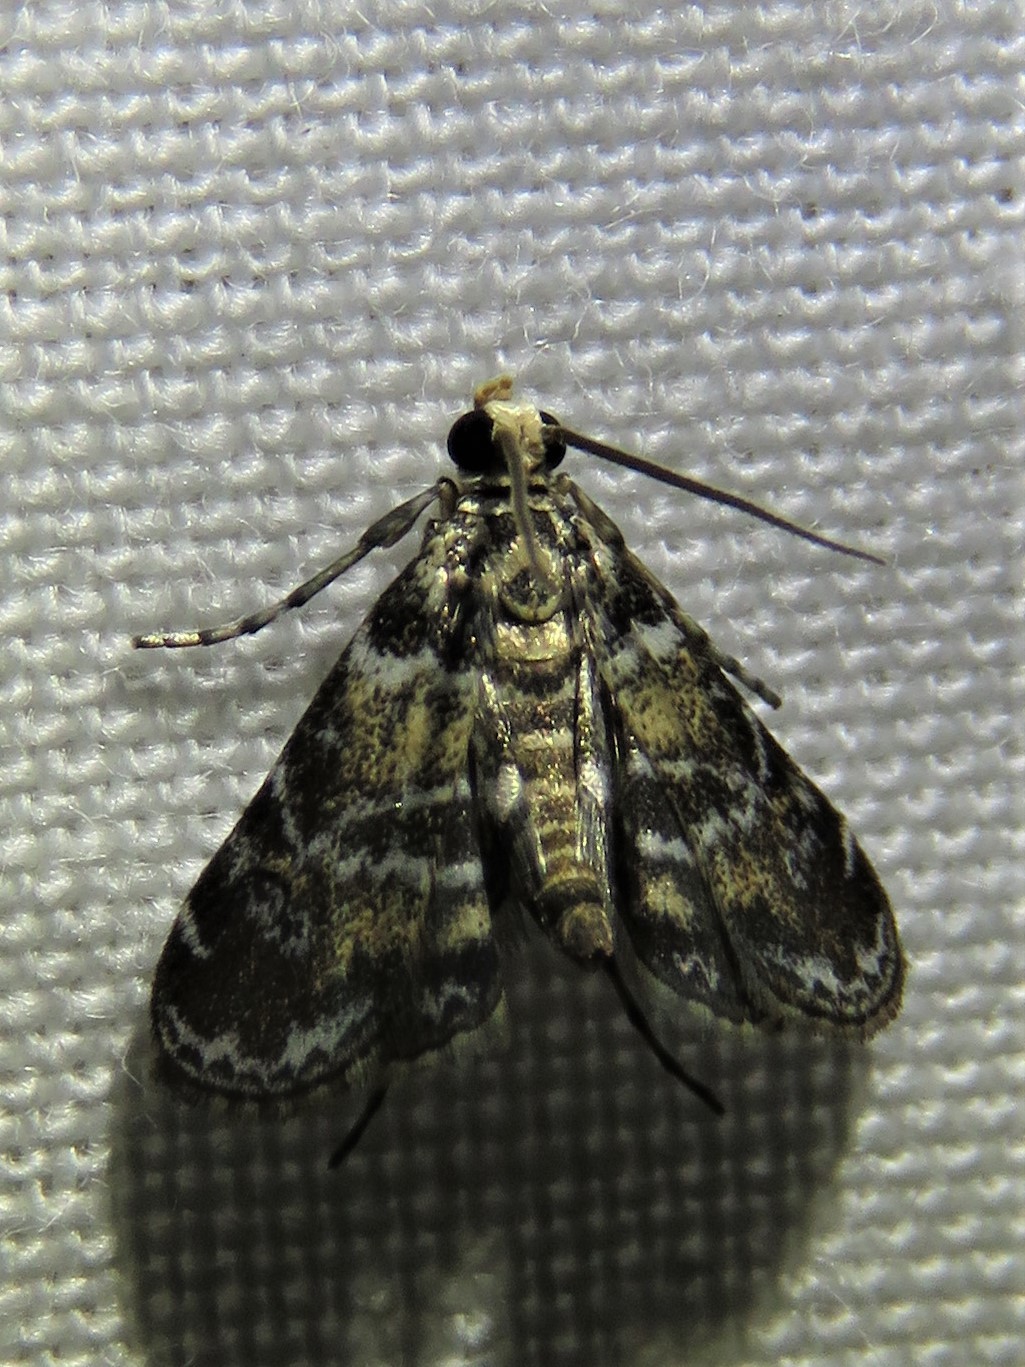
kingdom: Animalia
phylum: Arthropoda
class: Insecta
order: Lepidoptera
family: Crambidae
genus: Elophila
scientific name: Elophila obliteralis
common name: Waterlily leafcutter moth
